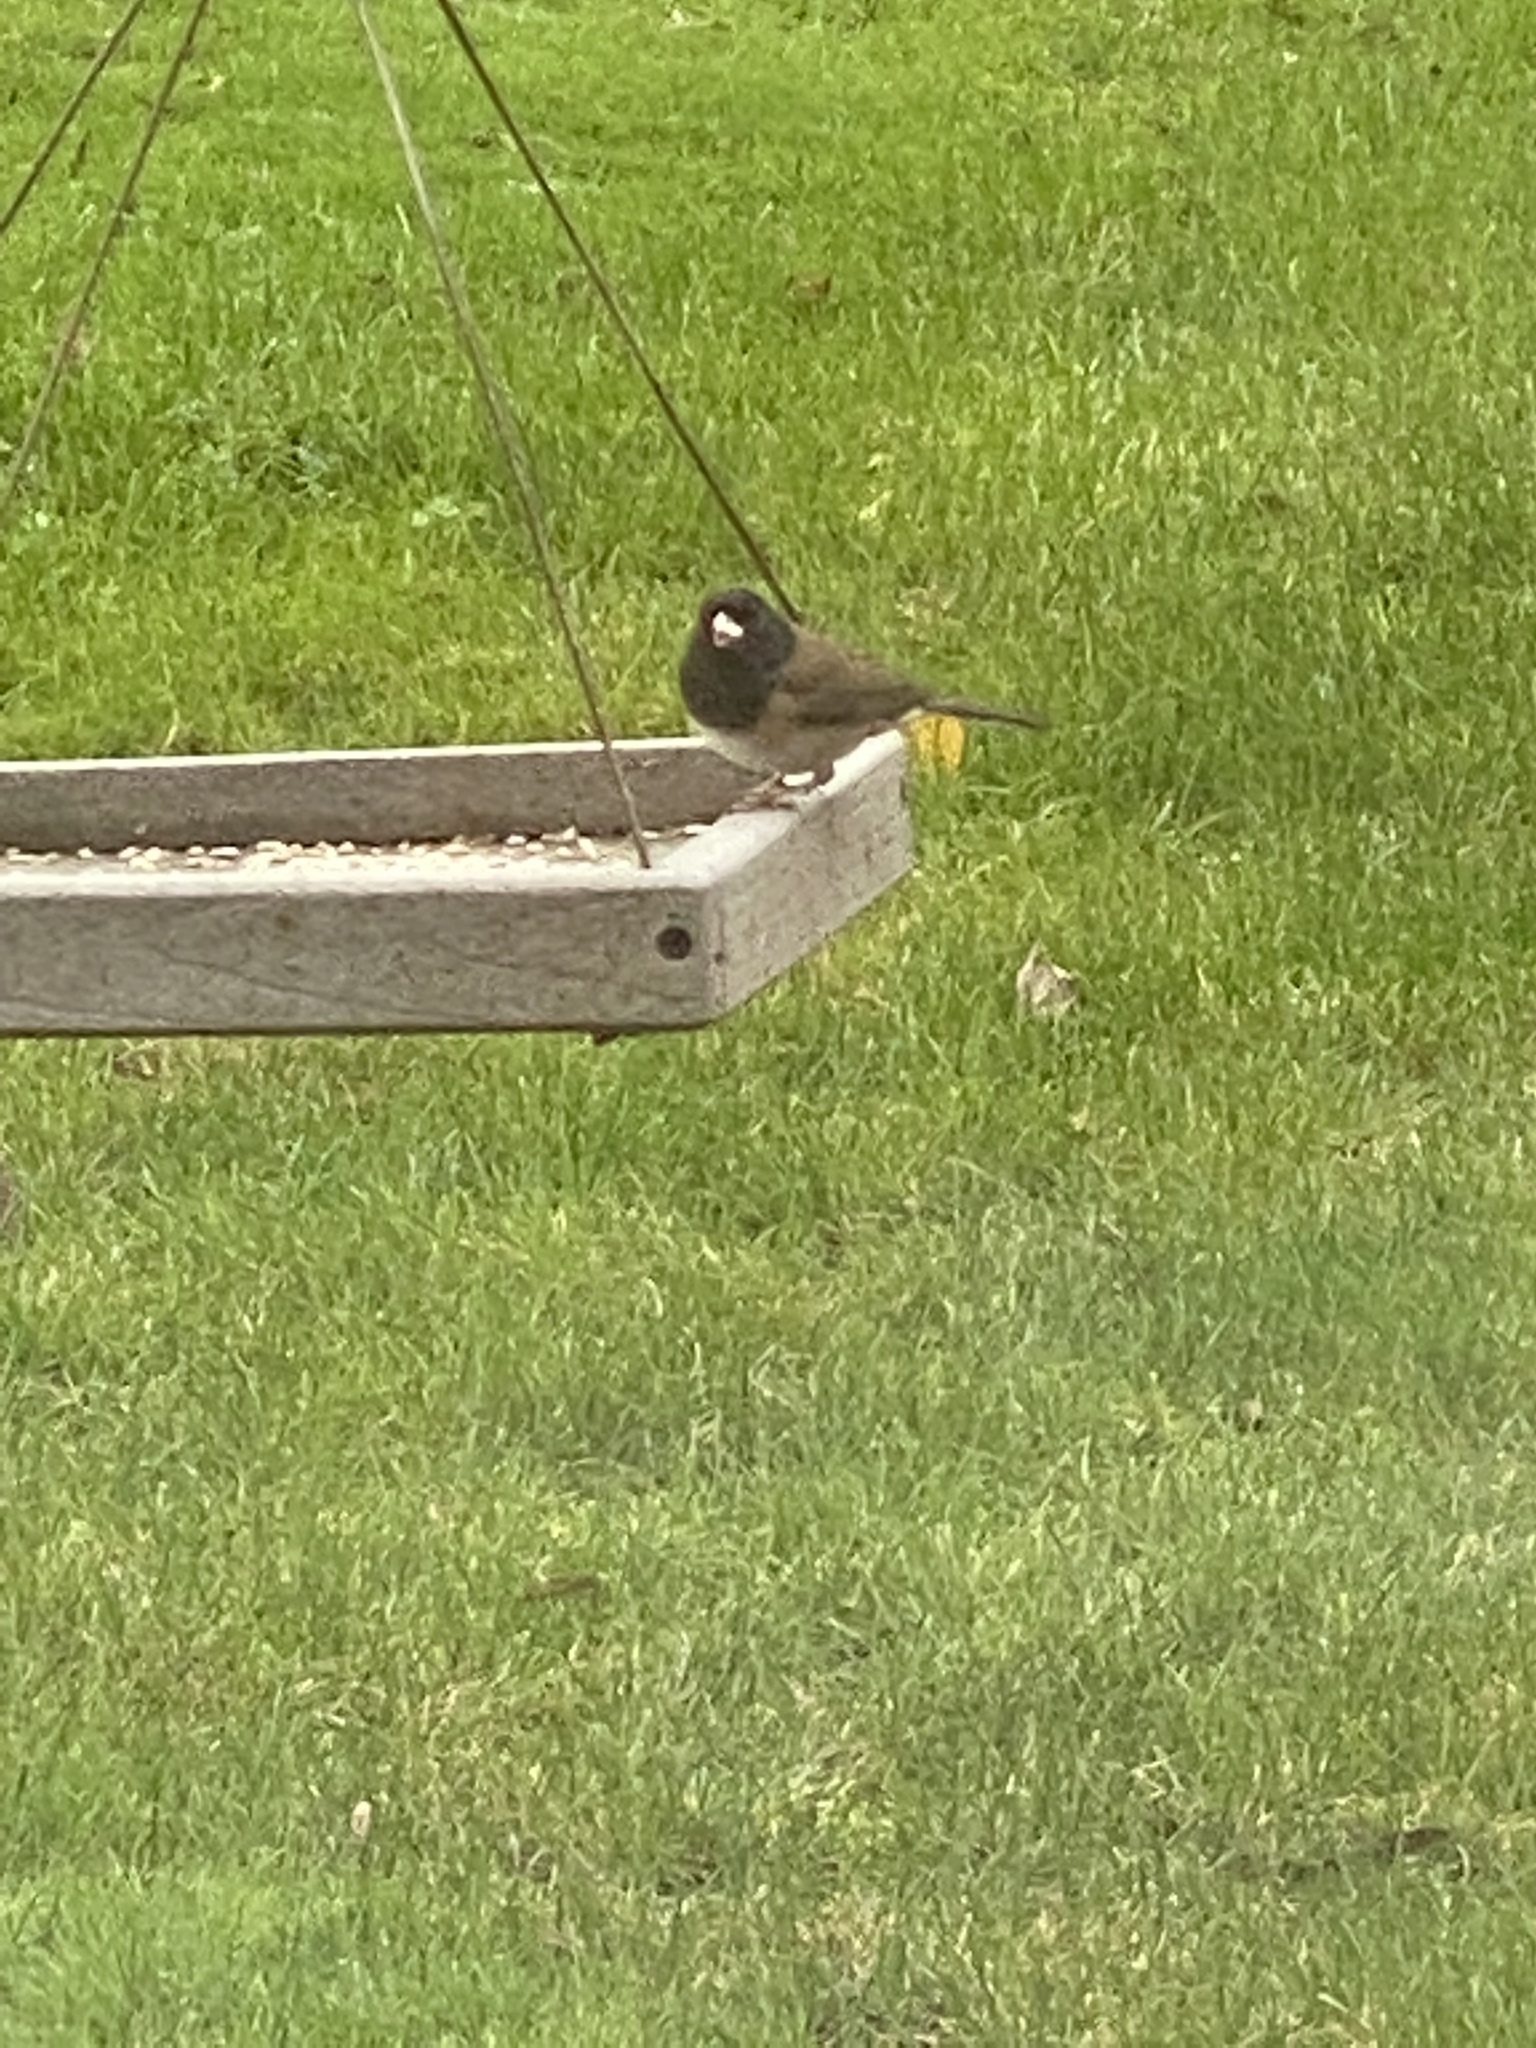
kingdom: Animalia
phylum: Chordata
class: Aves
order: Passeriformes
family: Passerellidae
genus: Junco
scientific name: Junco hyemalis
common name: Dark-eyed junco
